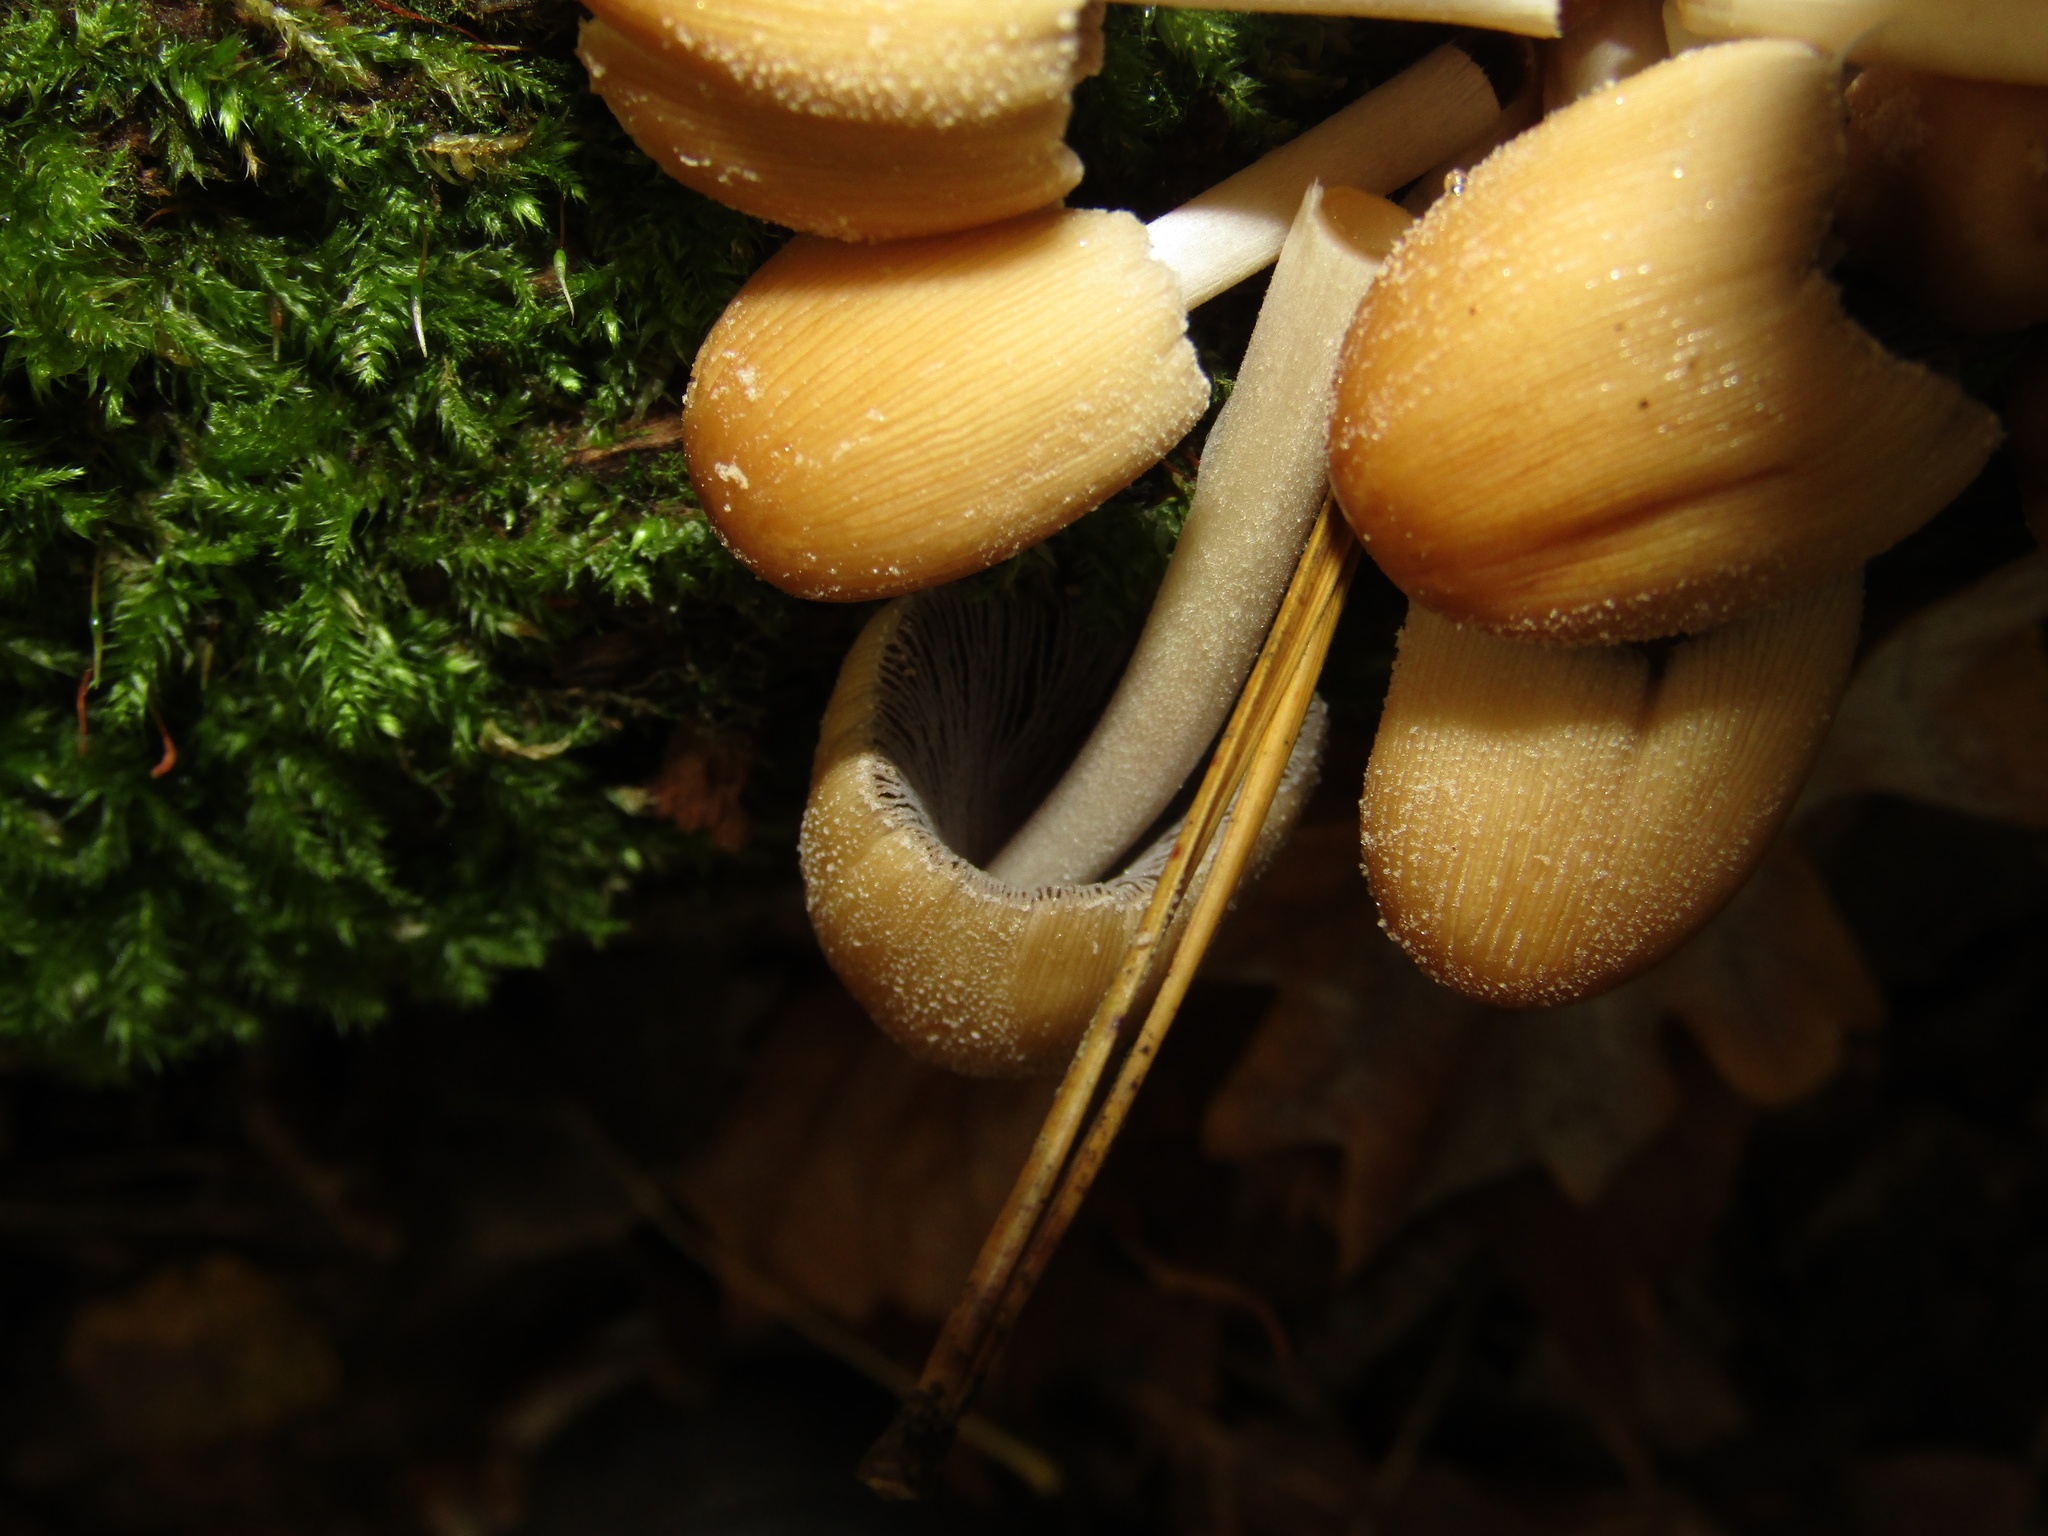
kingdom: Fungi
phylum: Basidiomycota
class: Agaricomycetes
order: Agaricales
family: Psathyrellaceae
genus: Coprinellus
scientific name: Coprinellus micaceus
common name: Glistening ink-cap
